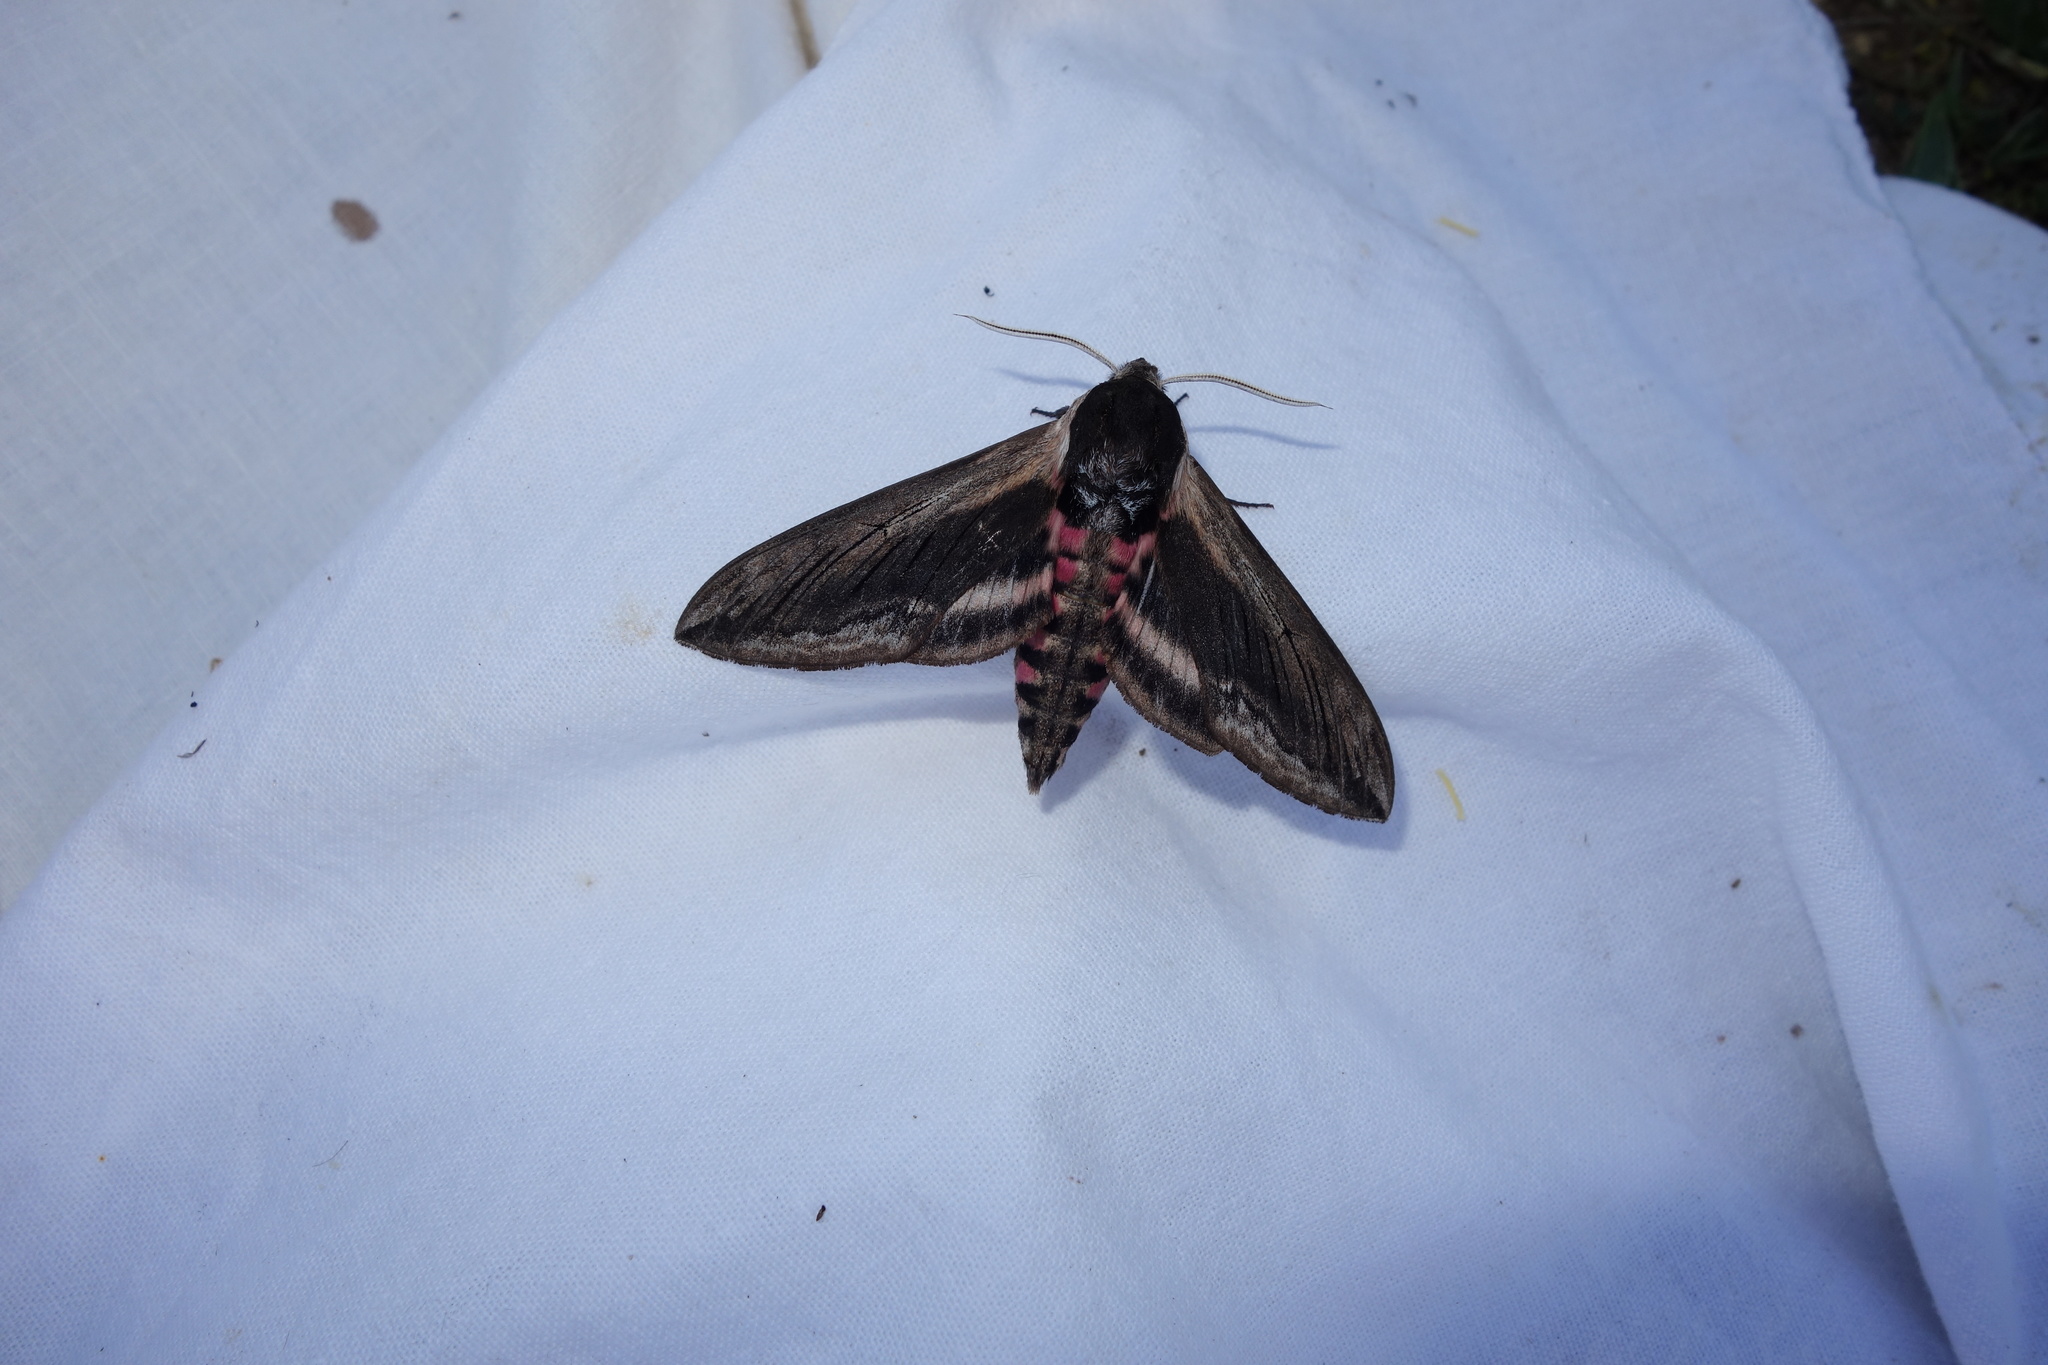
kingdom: Animalia
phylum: Arthropoda
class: Insecta
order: Lepidoptera
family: Sphingidae
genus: Sphinx
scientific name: Sphinx ligustri
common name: Privet hawk-moth
